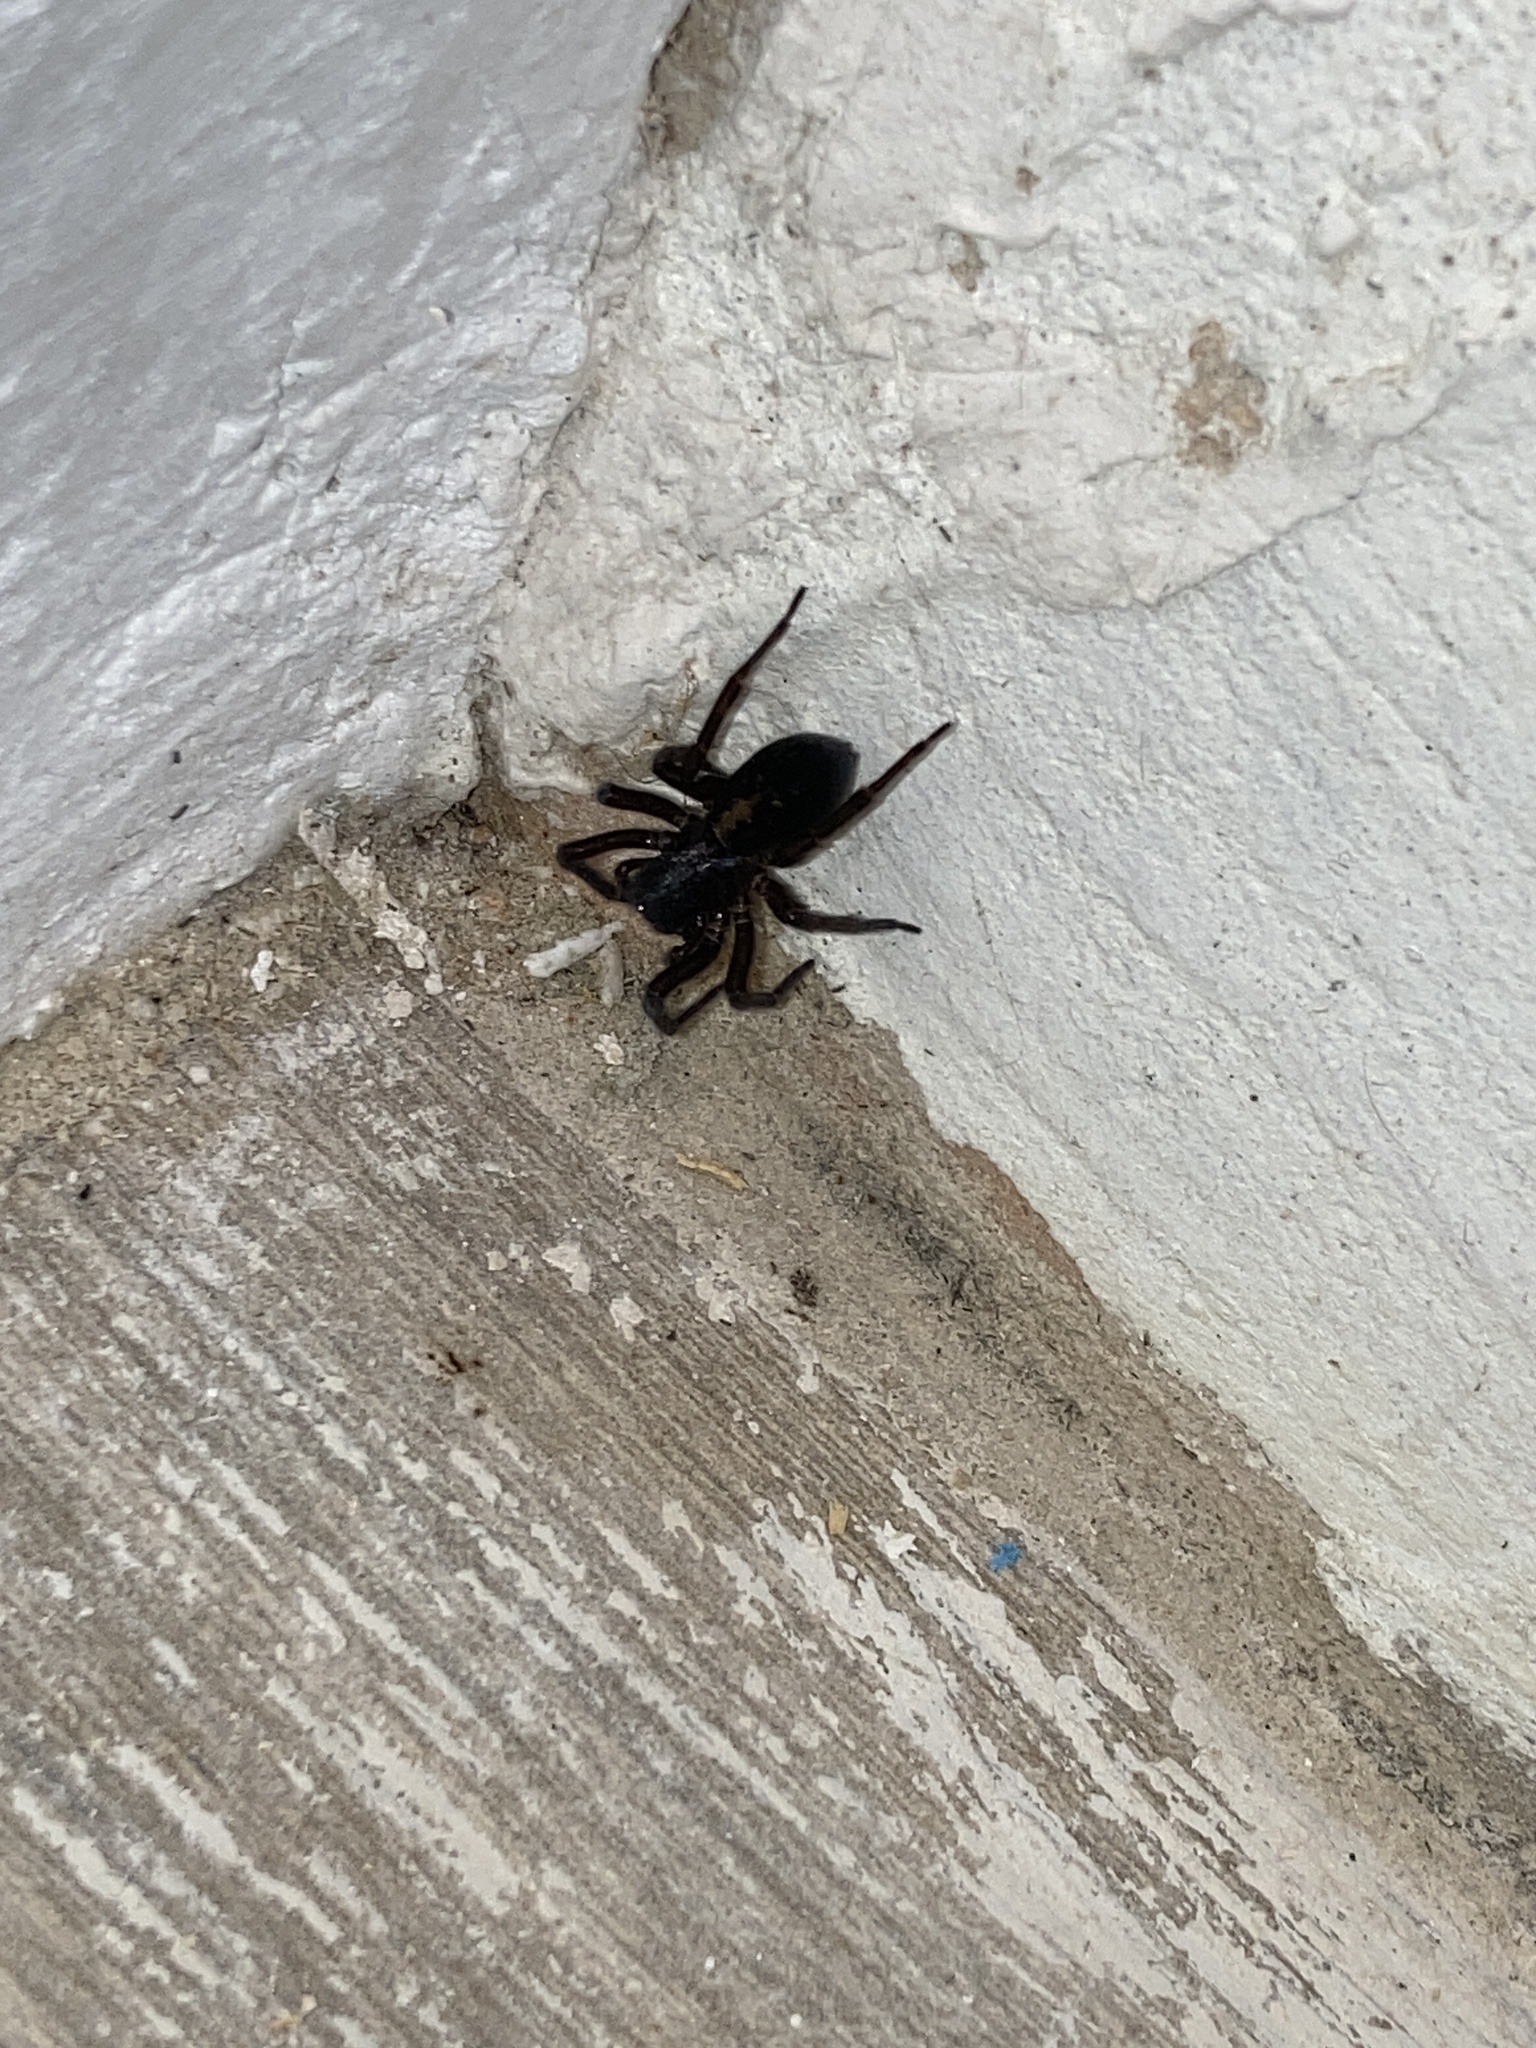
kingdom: Animalia
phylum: Arthropoda
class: Arachnida
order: Araneae
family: Amaurobiidae
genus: Amaurobius
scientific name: Amaurobius ferox
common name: Black laceweaver
